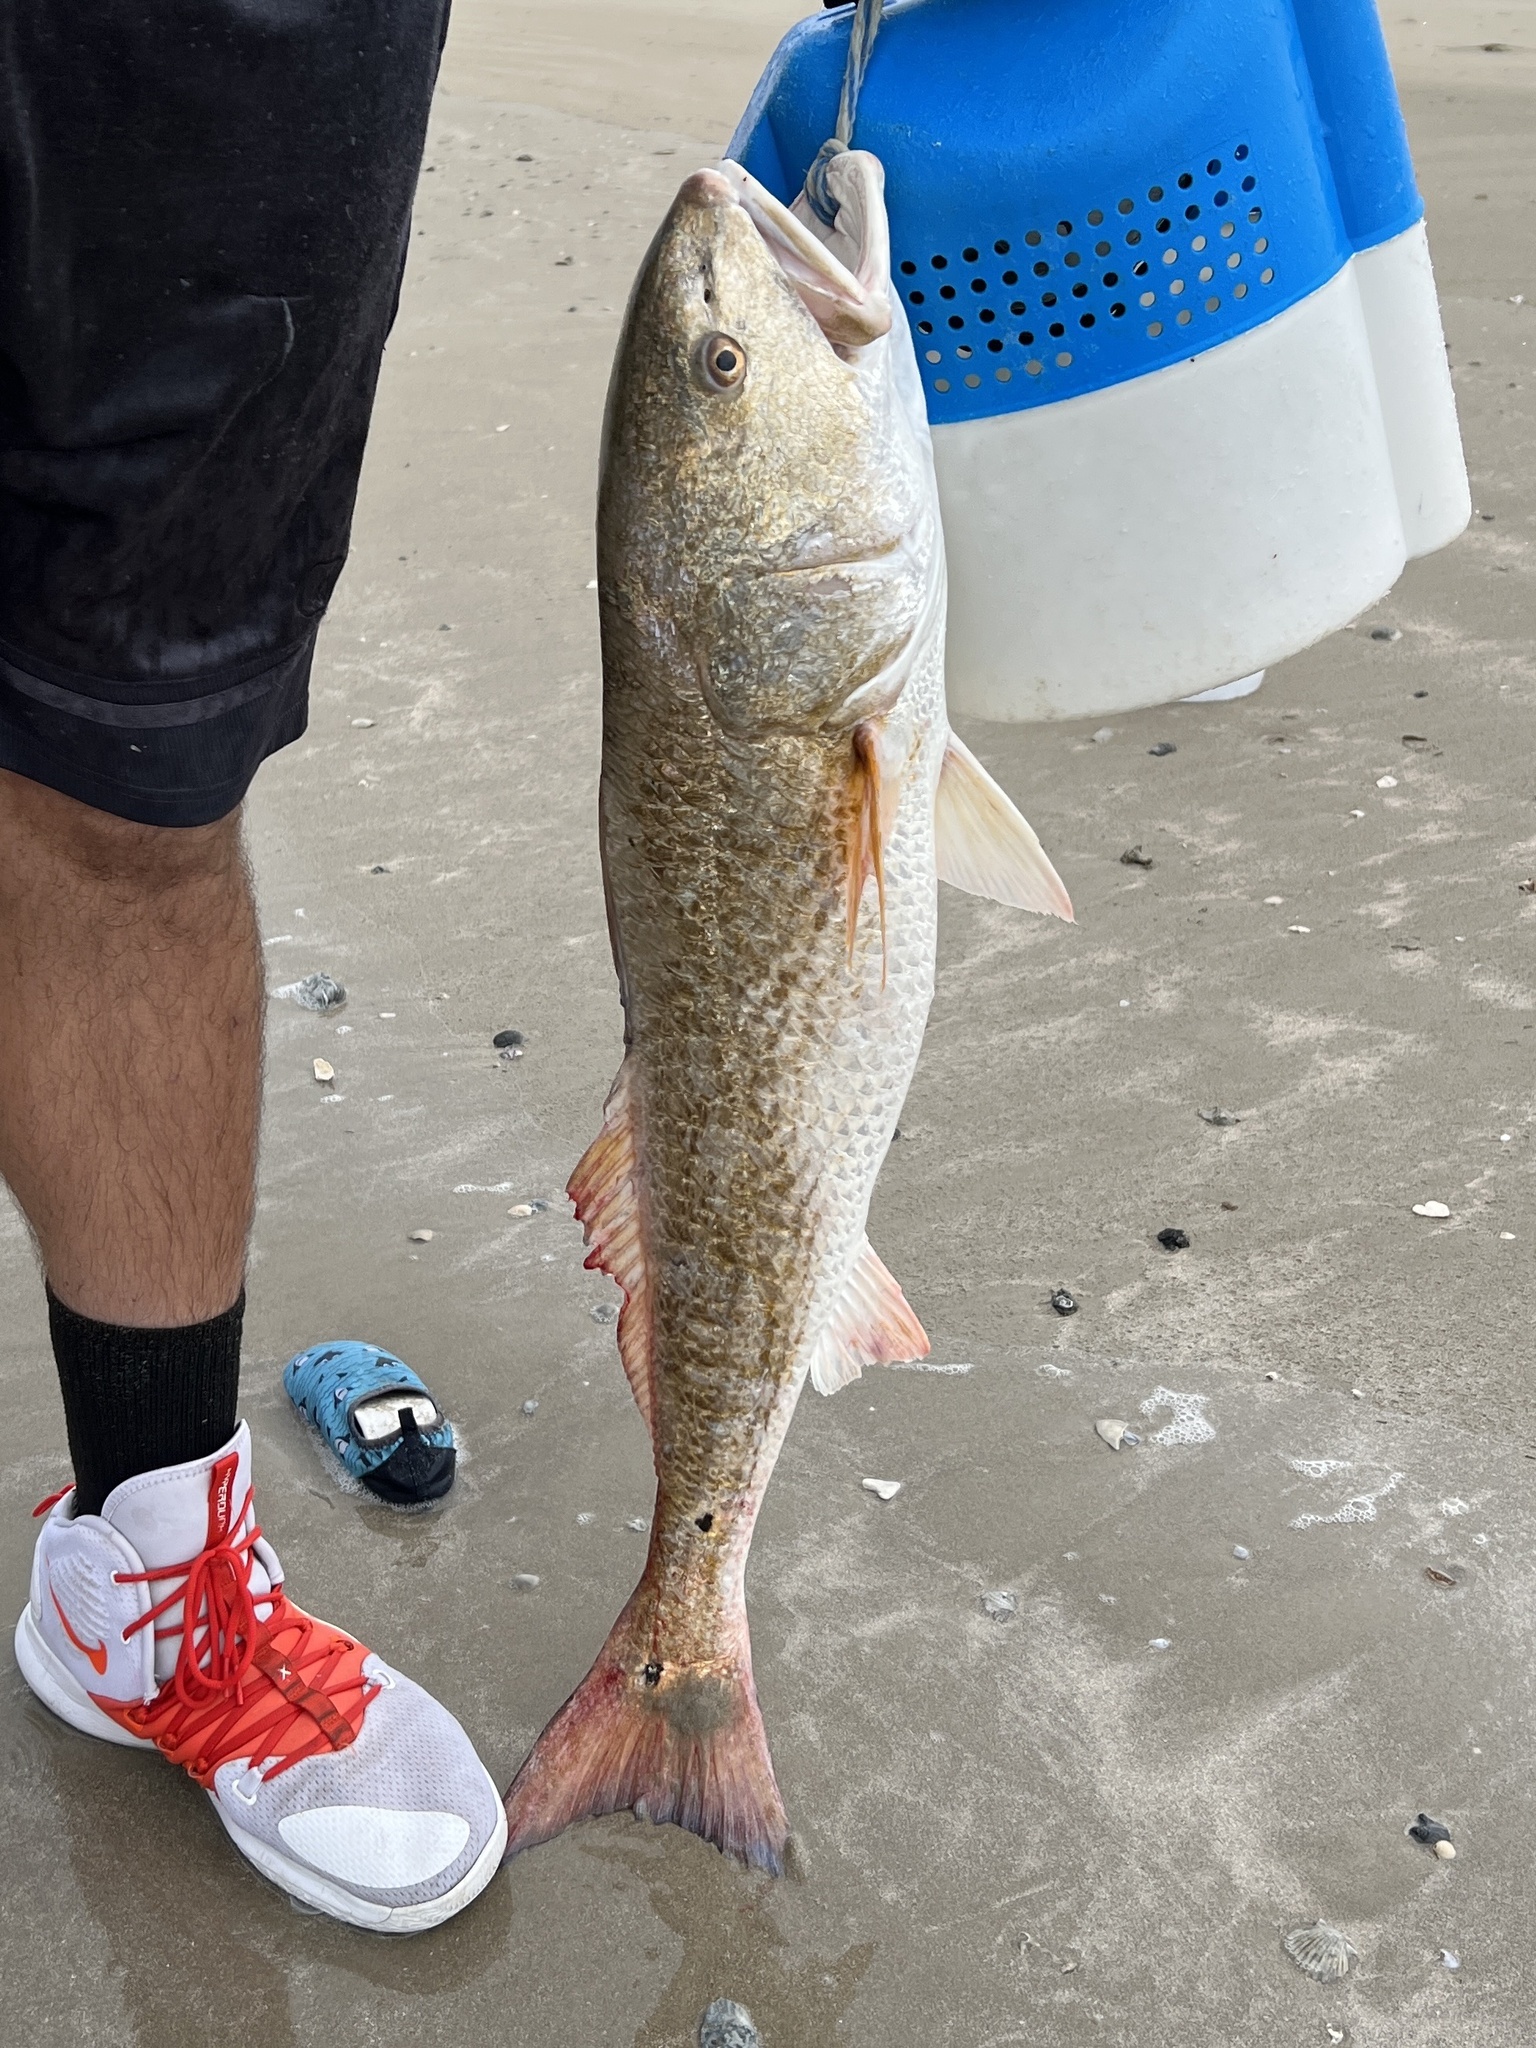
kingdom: Animalia
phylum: Chordata
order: Perciformes
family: Sciaenidae
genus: Sciaenops
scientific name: Sciaenops ocellatus
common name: Red drum
